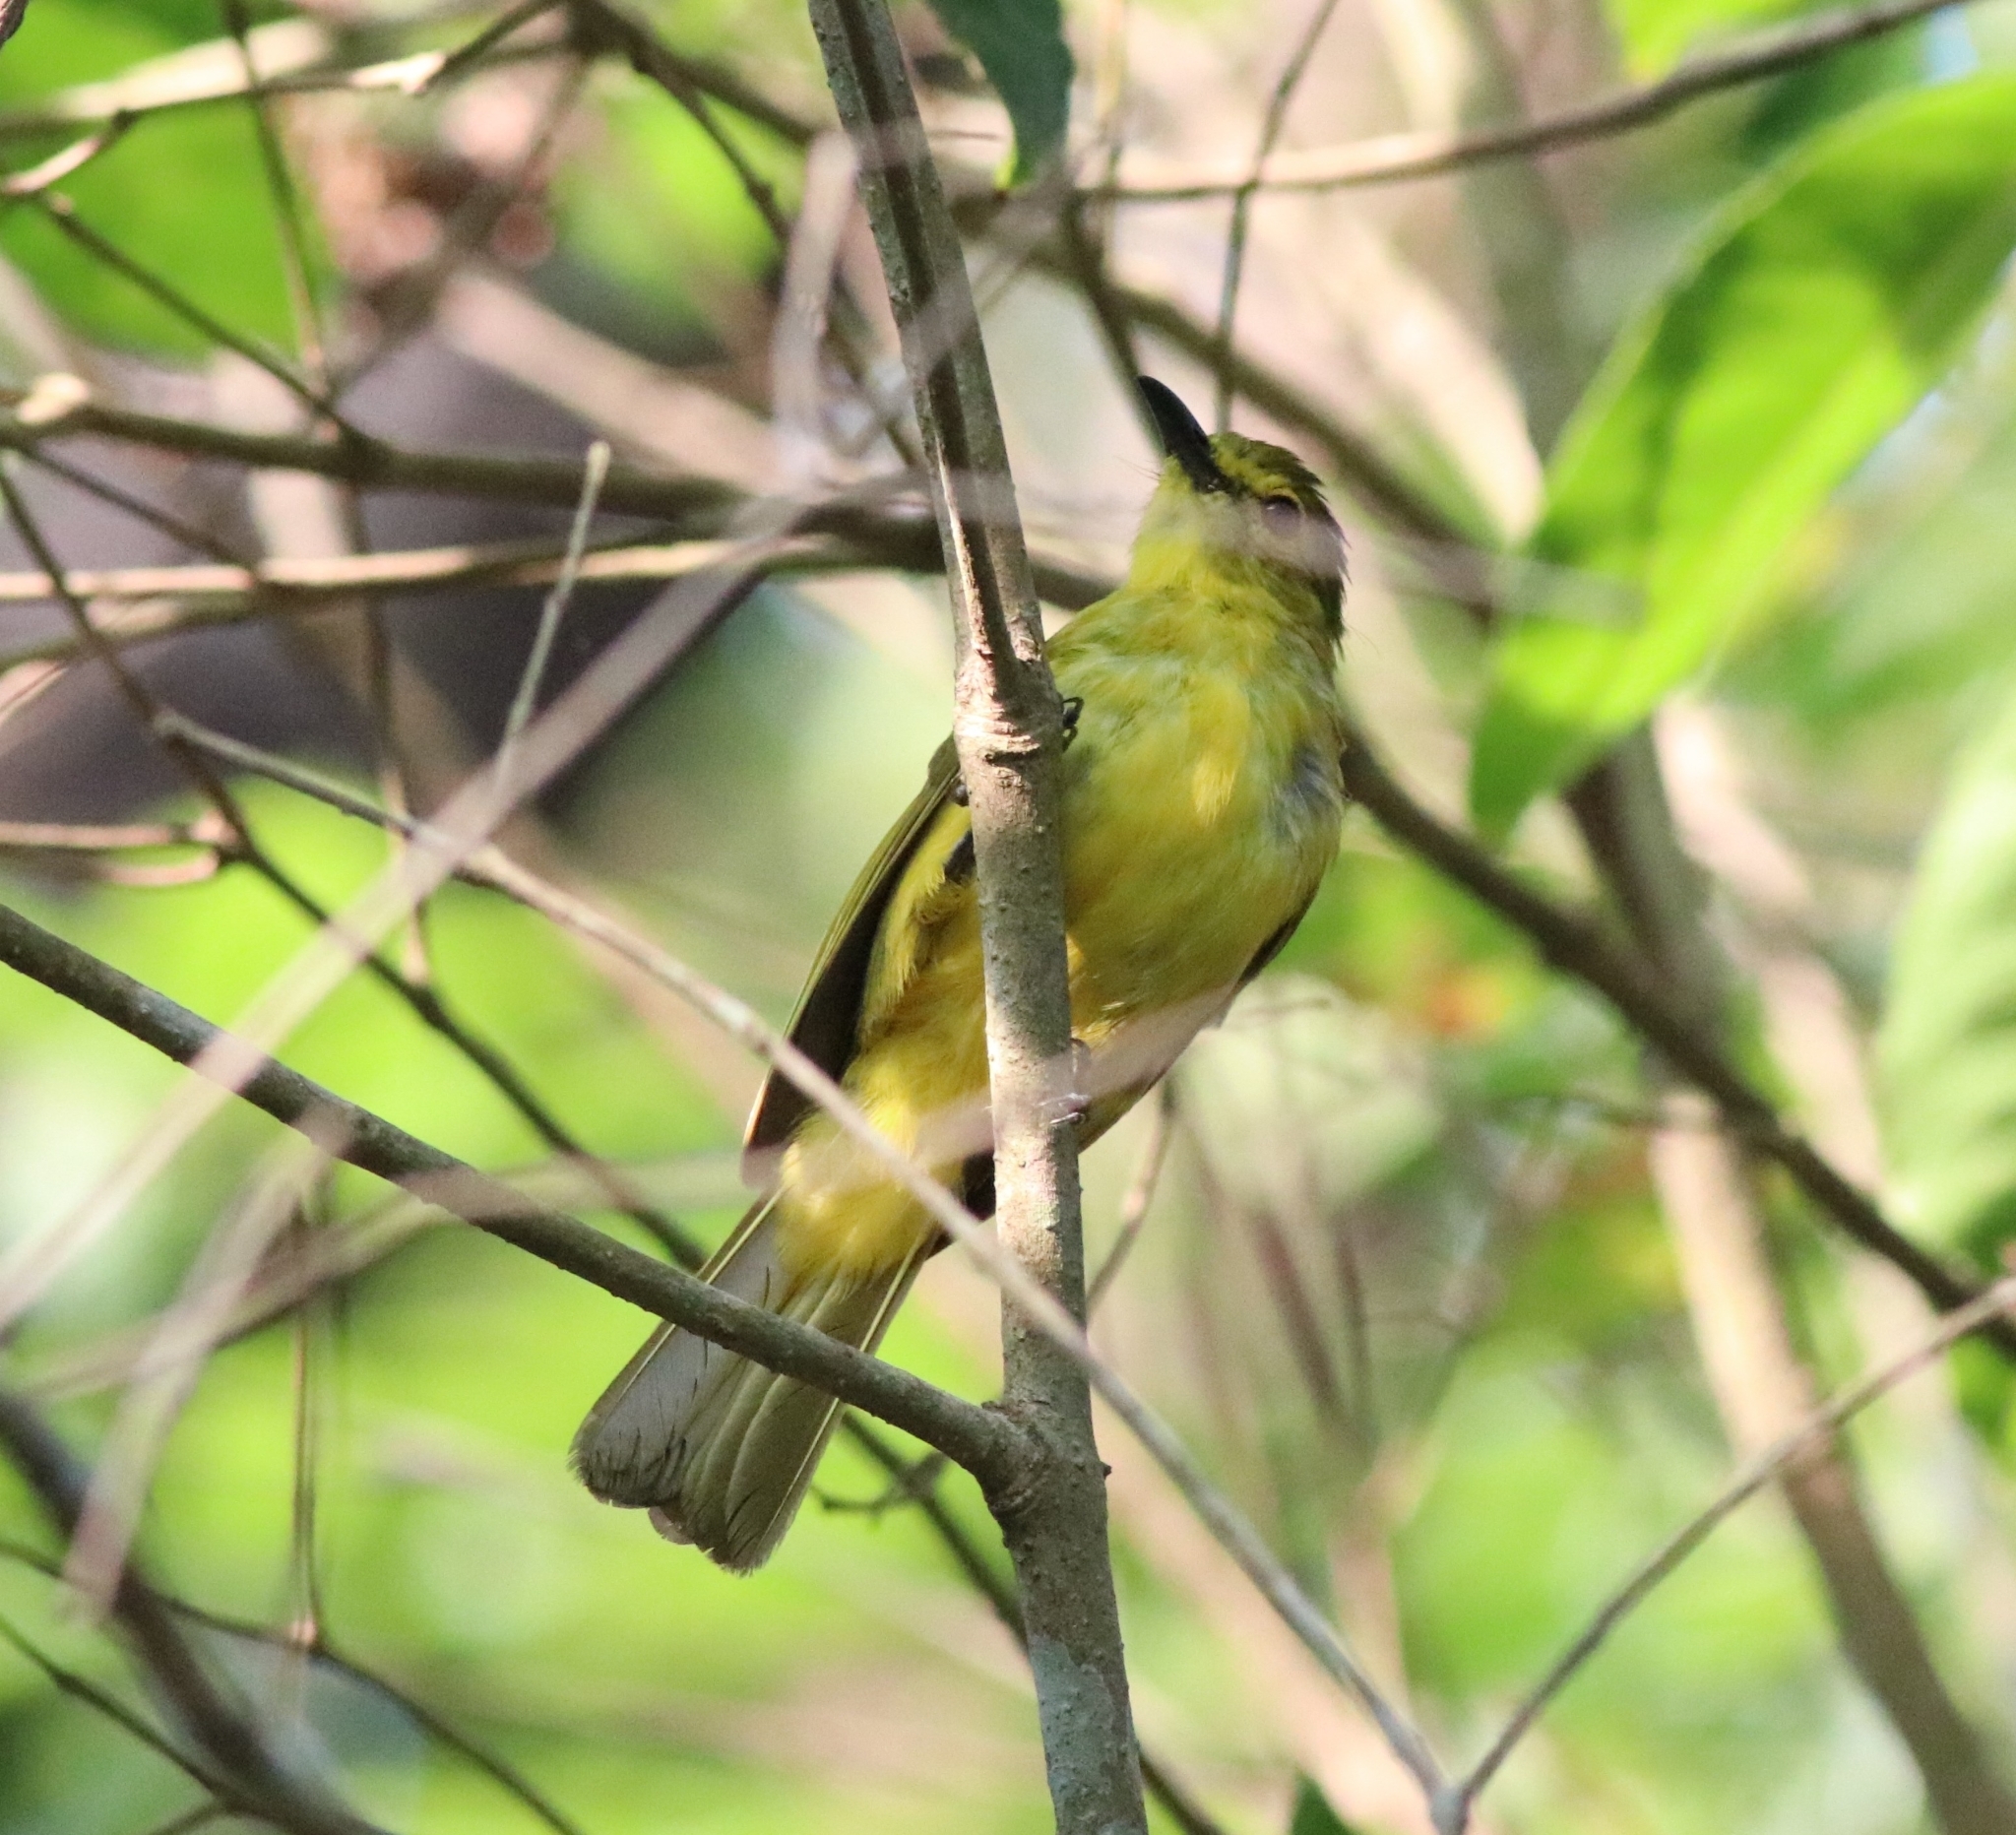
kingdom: Animalia
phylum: Chordata
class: Aves
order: Passeriformes
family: Pycnonotidae
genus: Acritillas
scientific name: Acritillas indica
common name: Yellow-browed bulbul
